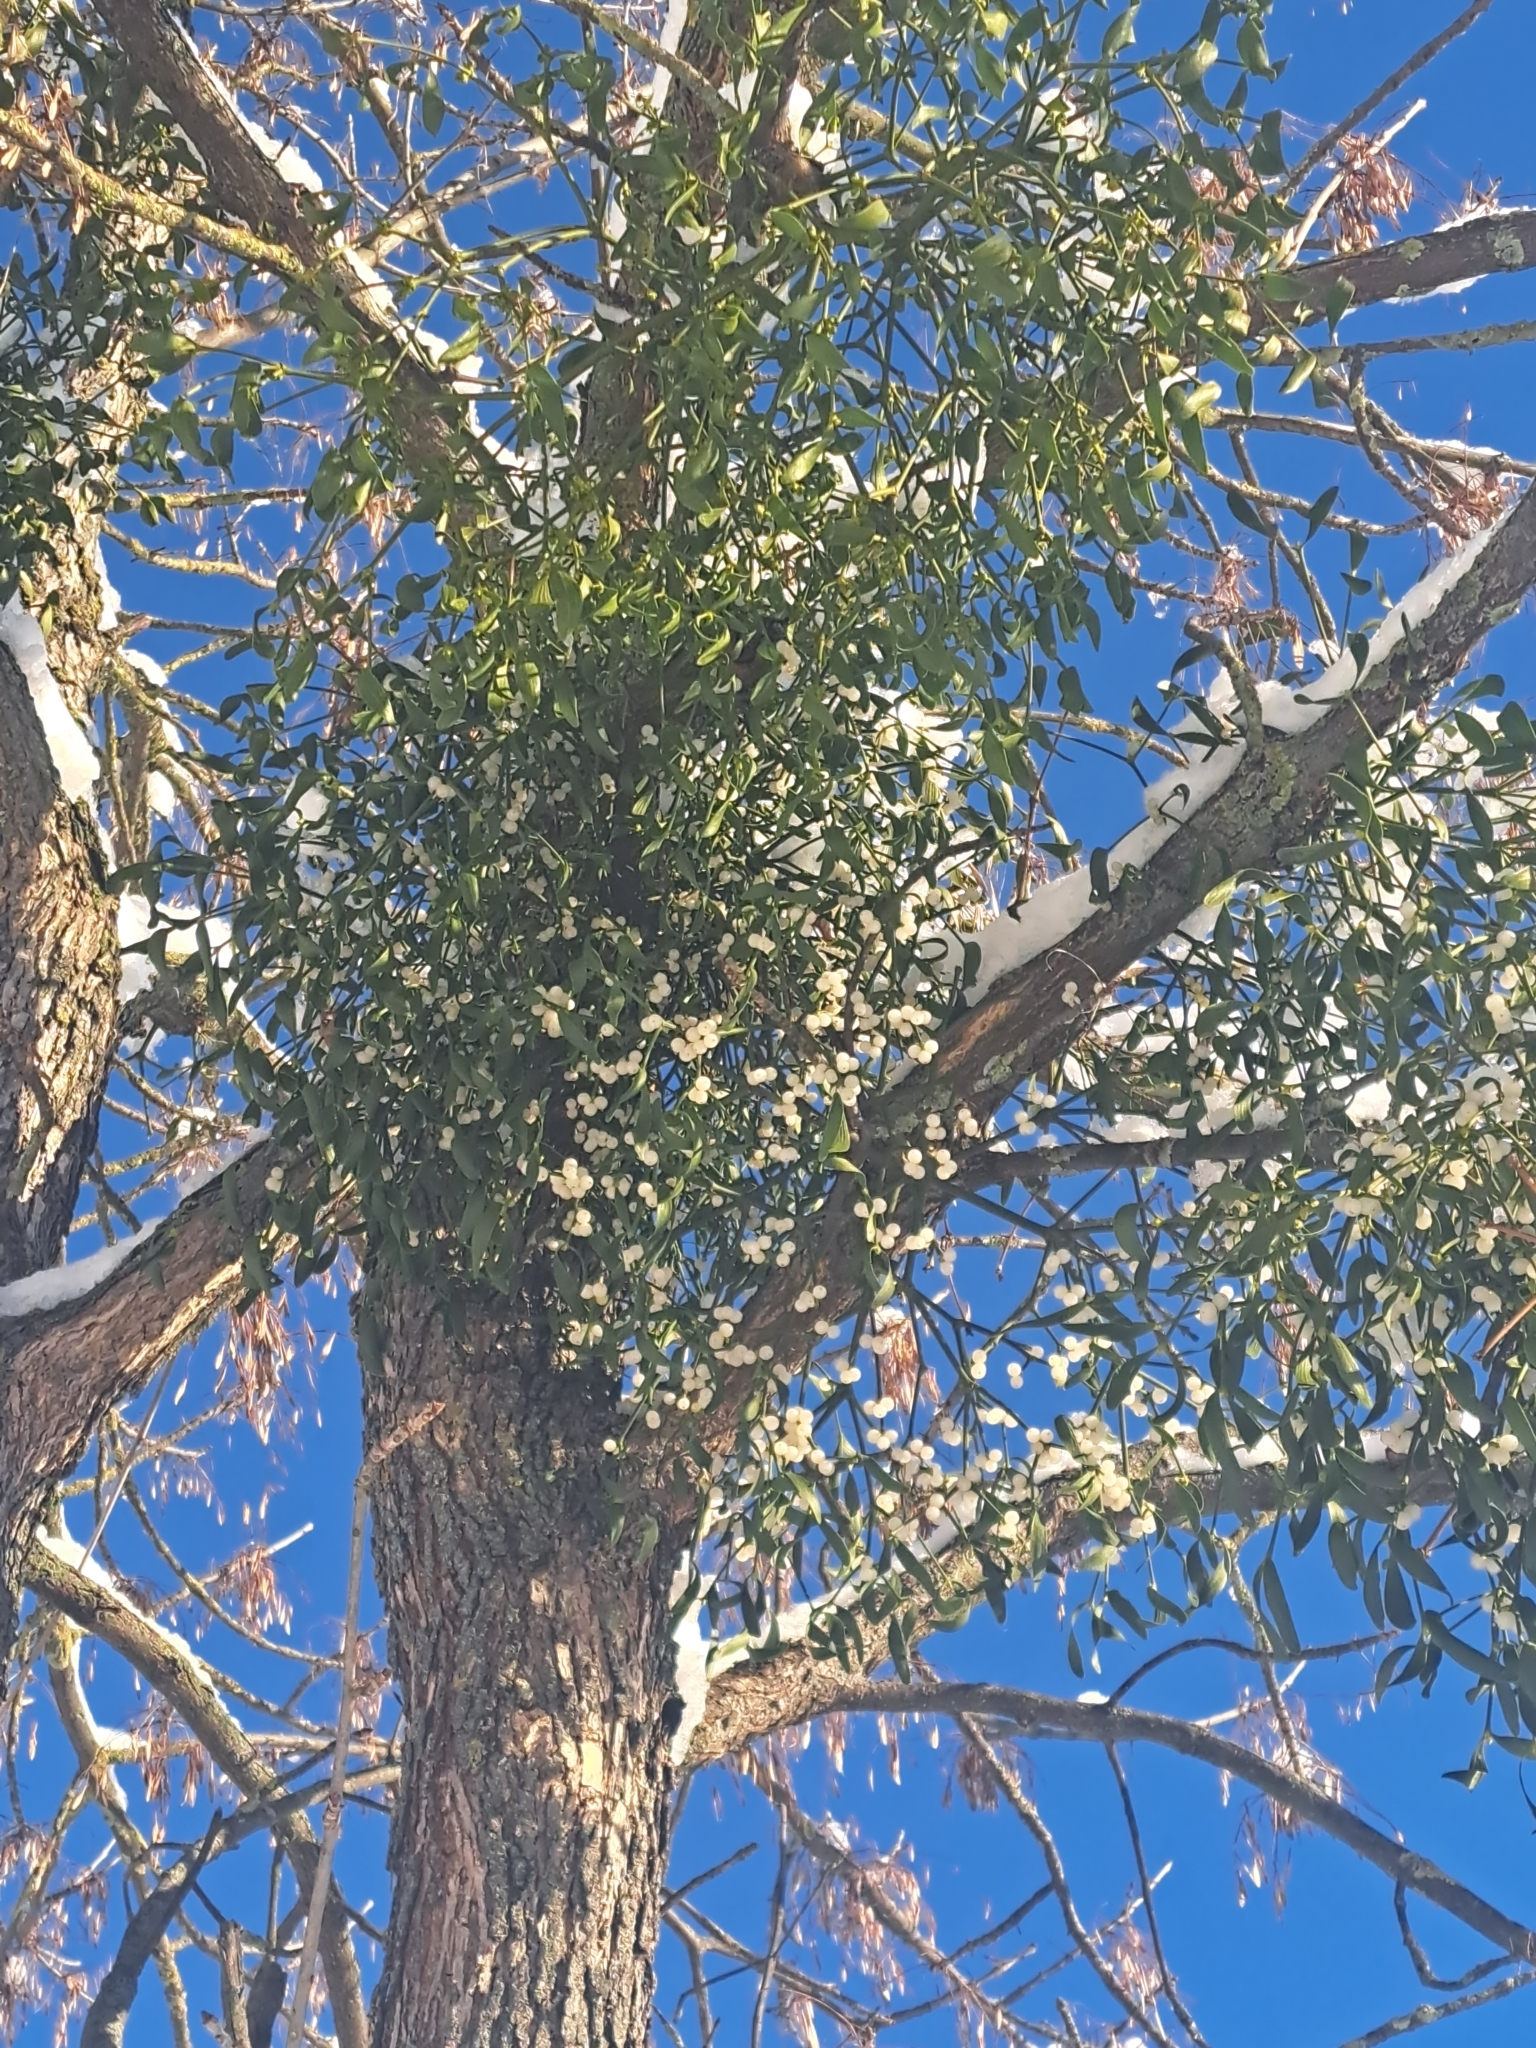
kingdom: Plantae
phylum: Tracheophyta
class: Magnoliopsida
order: Santalales
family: Viscaceae
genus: Viscum
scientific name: Viscum album
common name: Mistletoe
